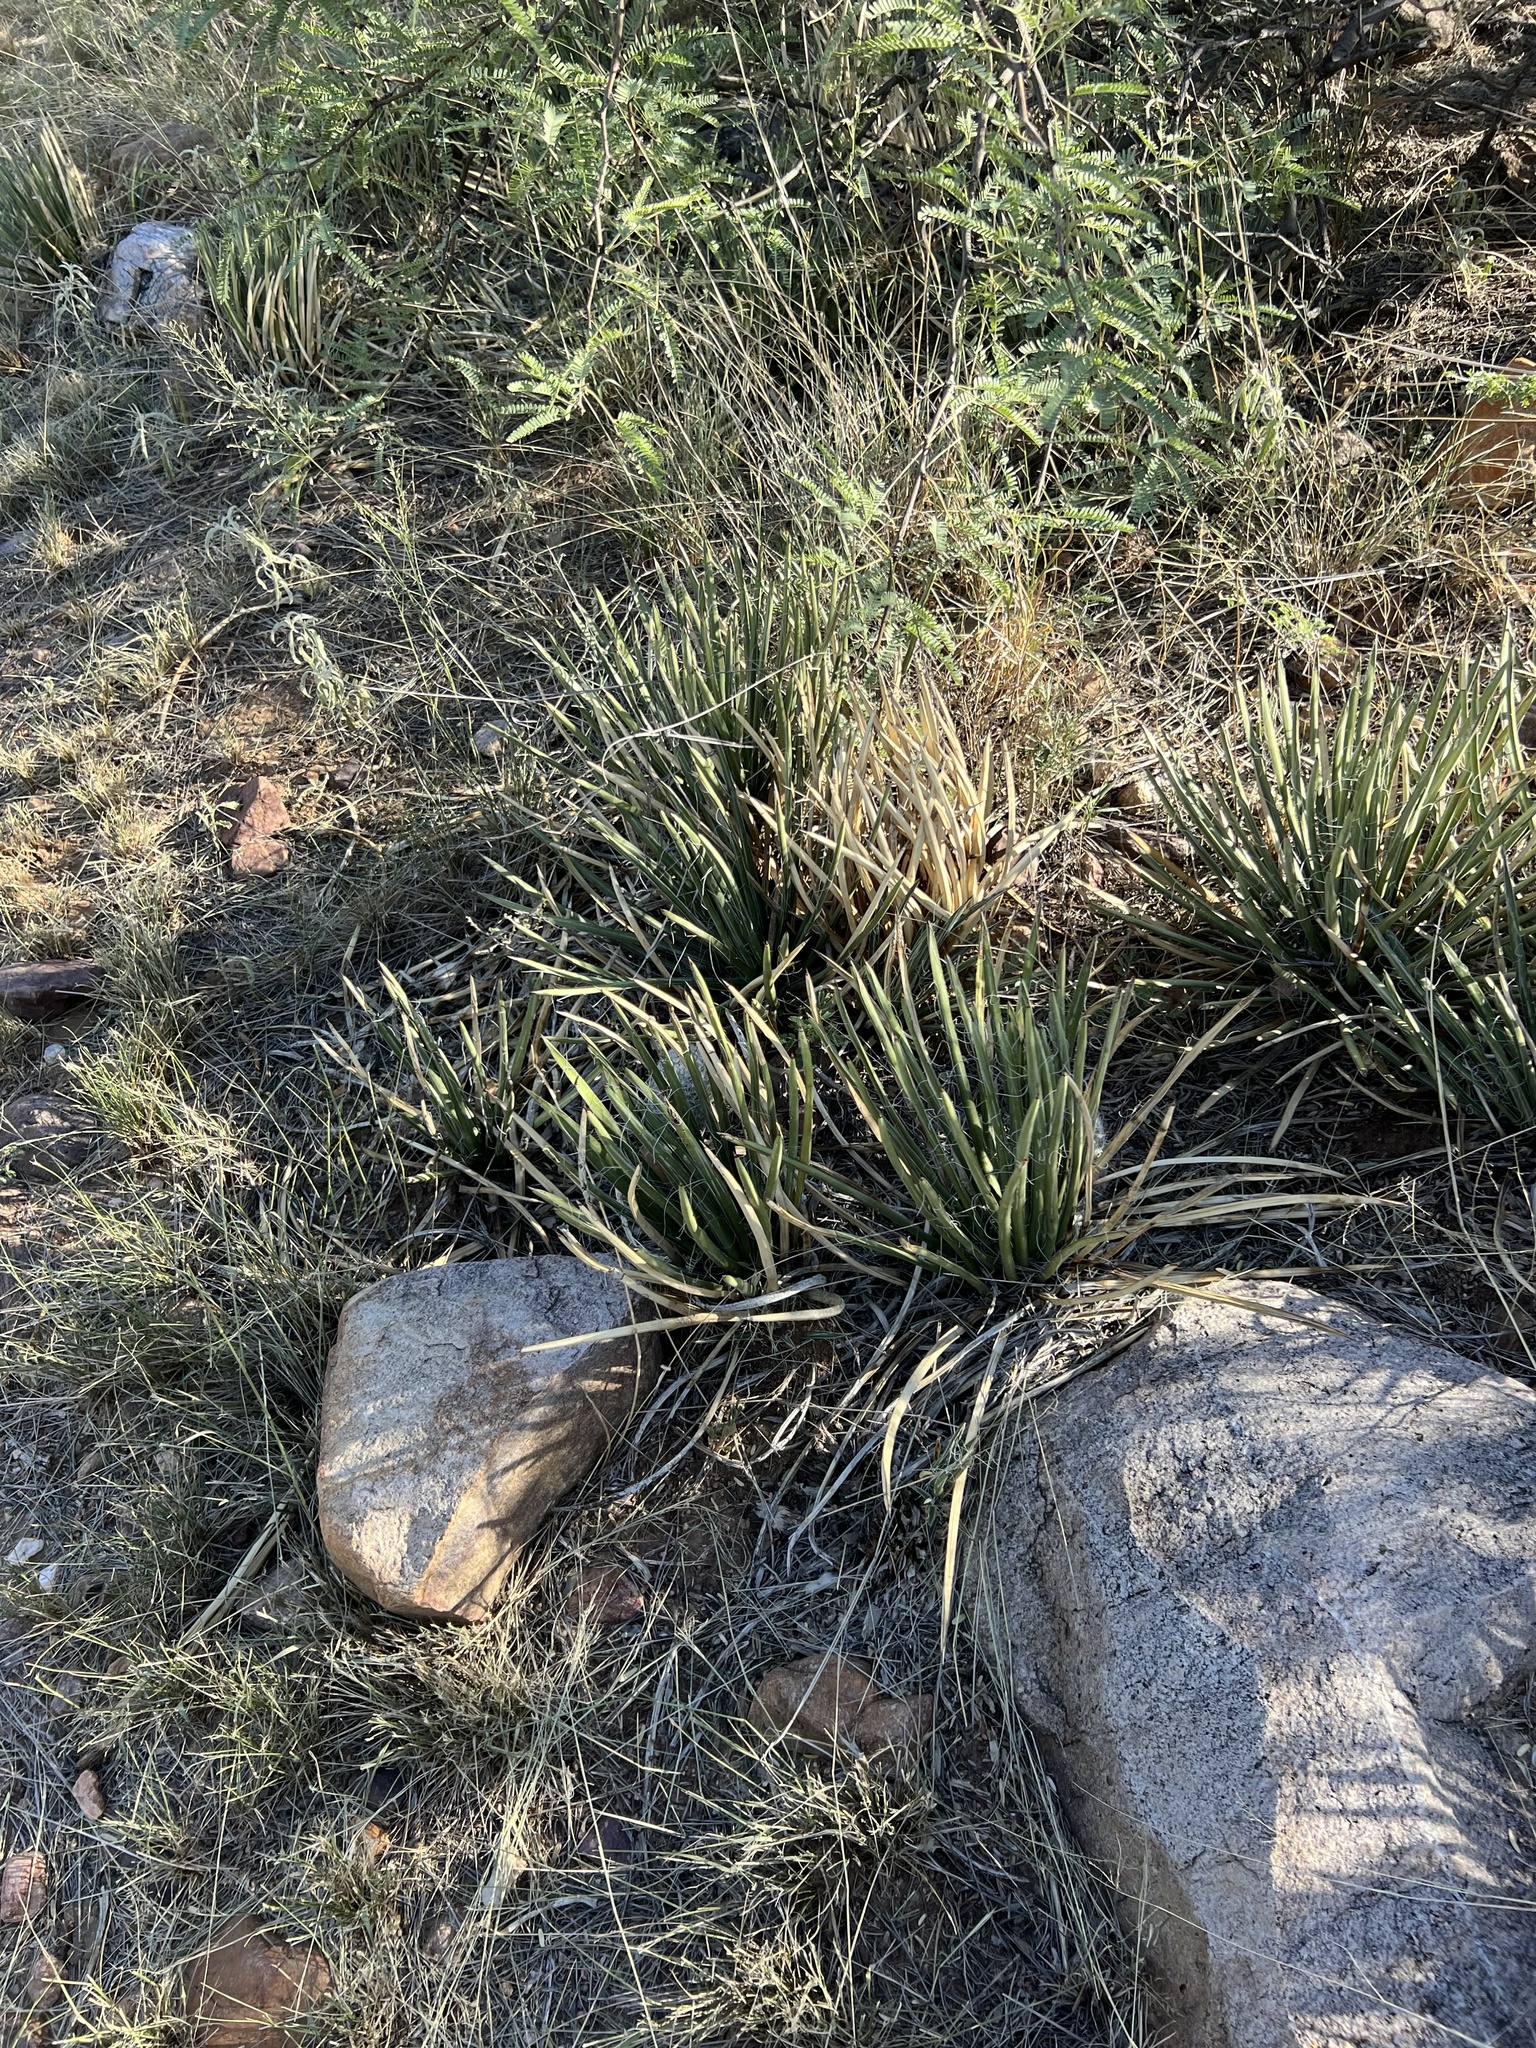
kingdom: Plantae
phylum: Tracheophyta
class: Liliopsida
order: Asparagales
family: Asparagaceae
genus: Agave
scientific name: Agave schottii
